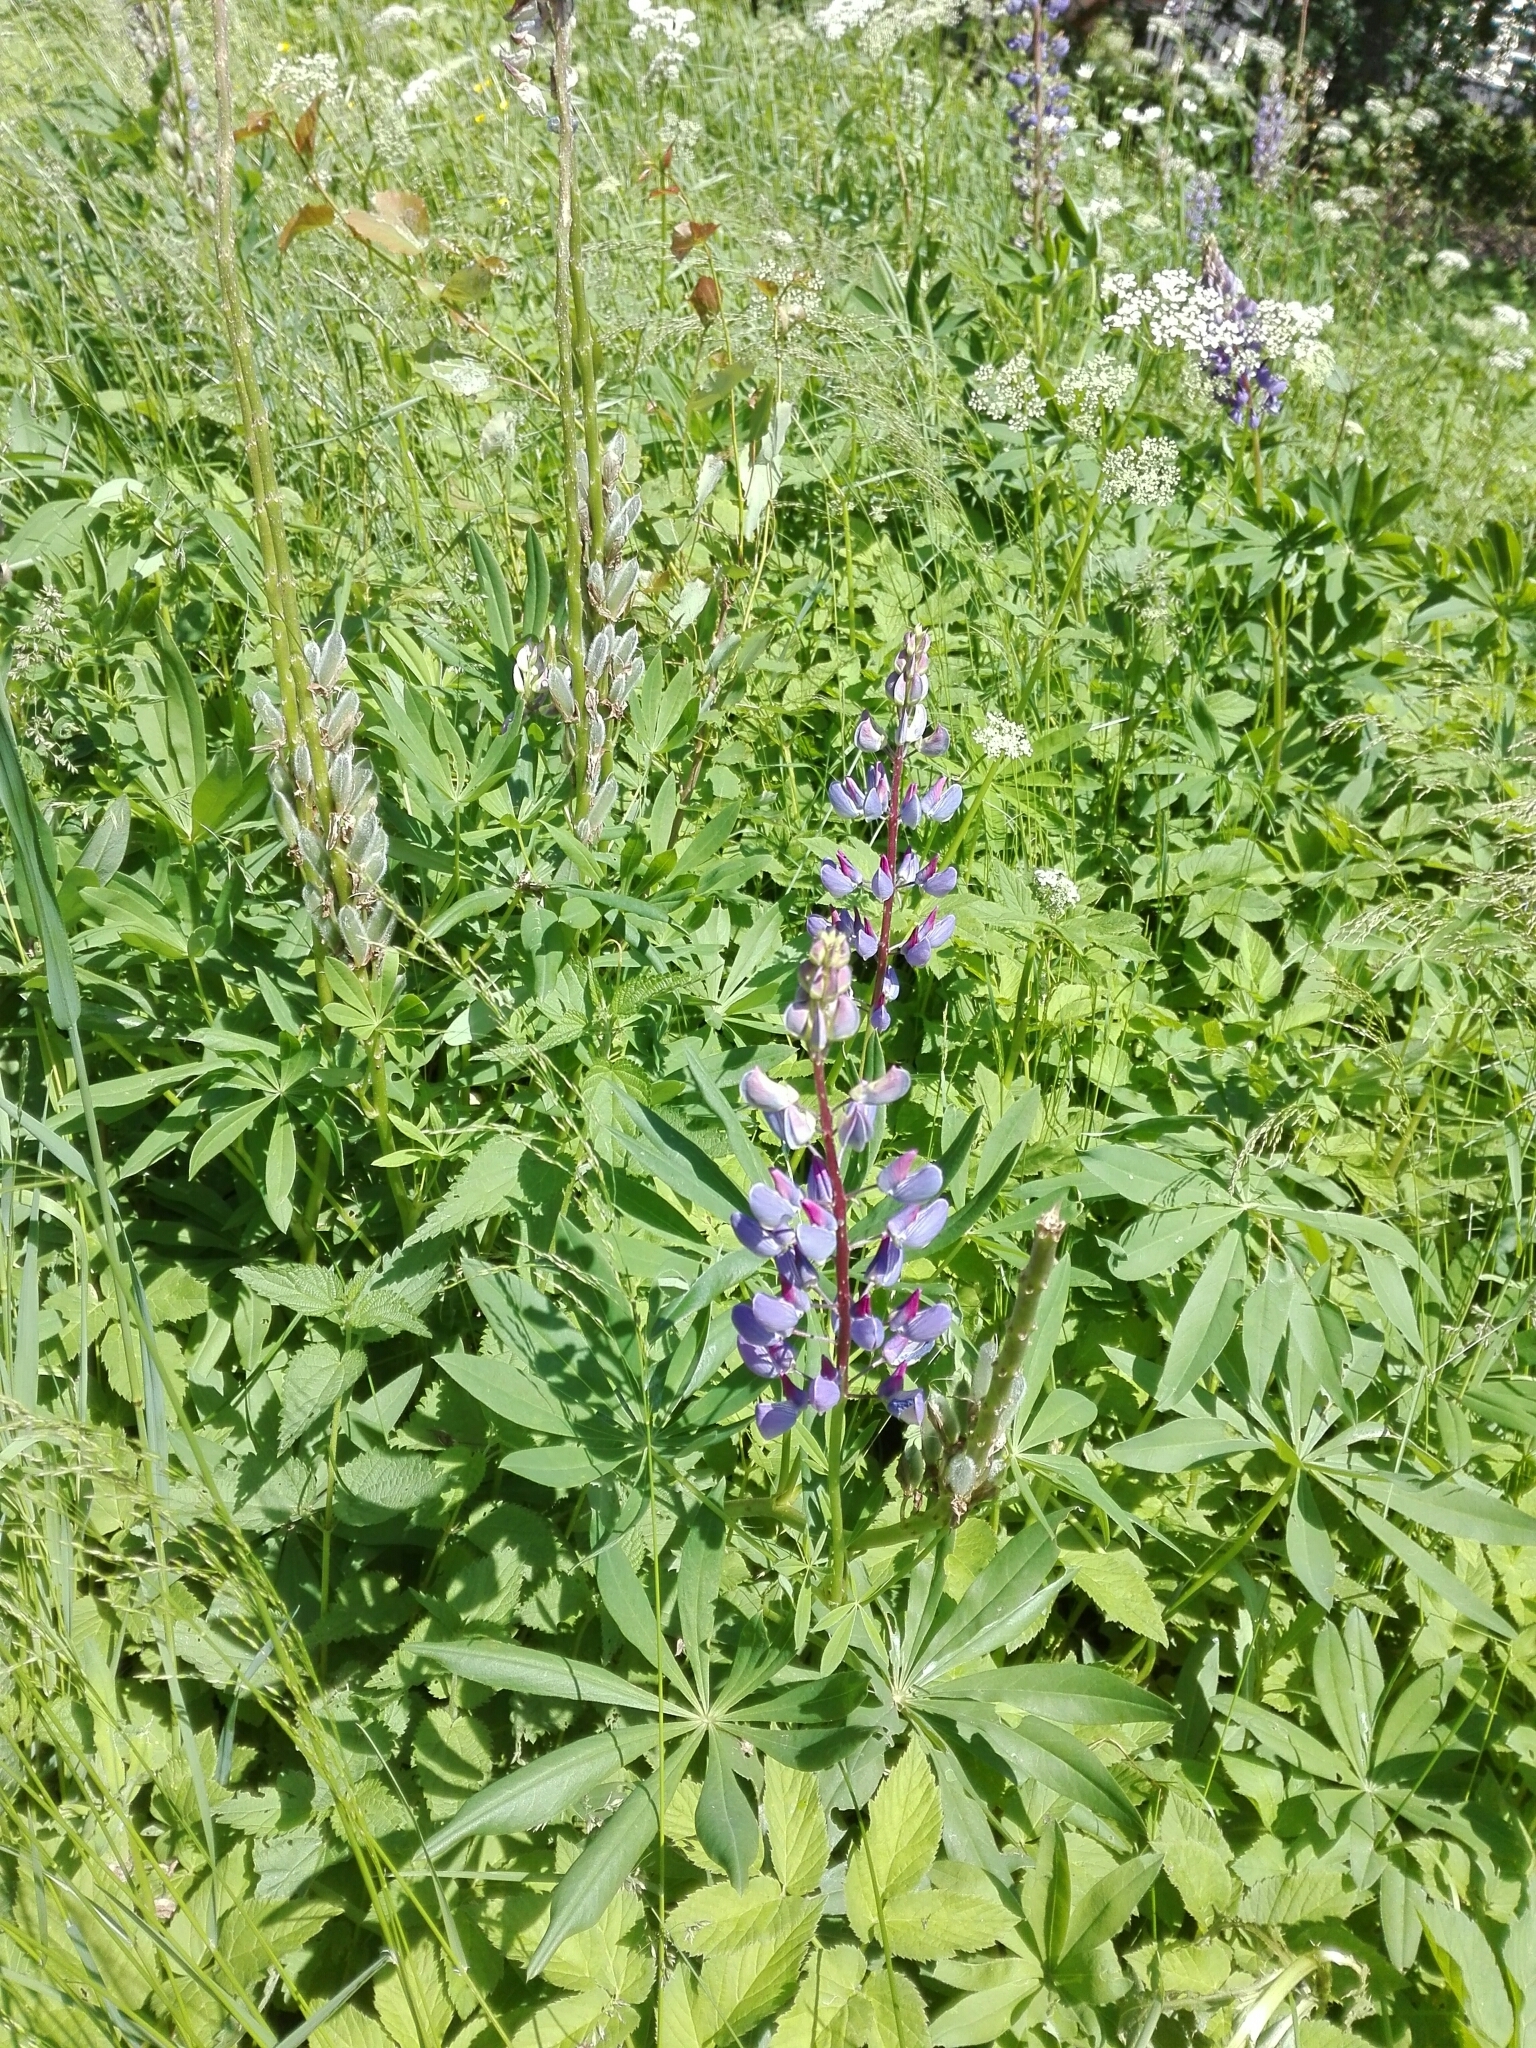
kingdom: Plantae
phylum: Tracheophyta
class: Magnoliopsida
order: Fabales
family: Fabaceae
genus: Lupinus
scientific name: Lupinus polyphyllus
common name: Garden lupin
